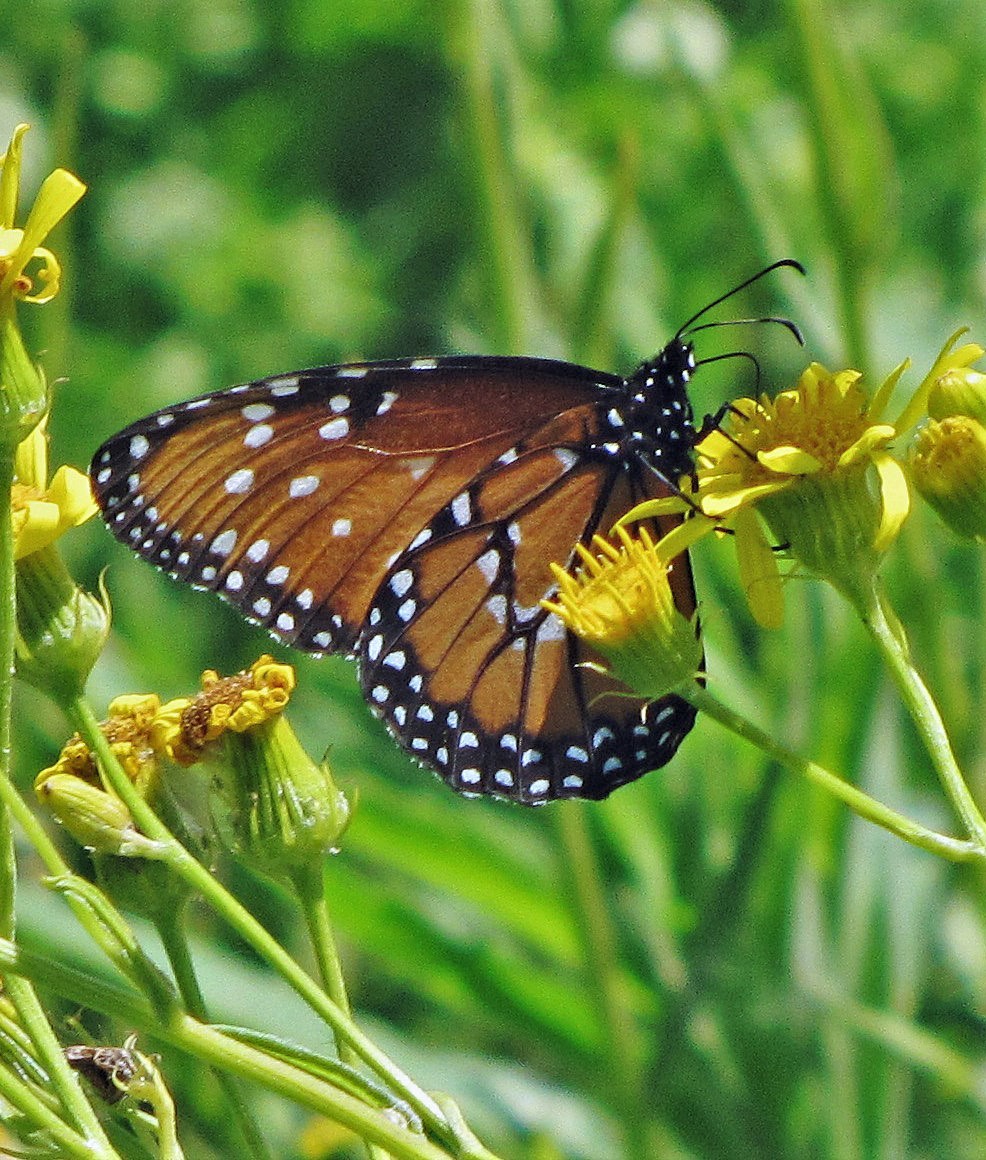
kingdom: Animalia
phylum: Arthropoda
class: Insecta
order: Lepidoptera
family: Nymphalidae
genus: Danaus
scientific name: Danaus gilippus
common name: Queen
